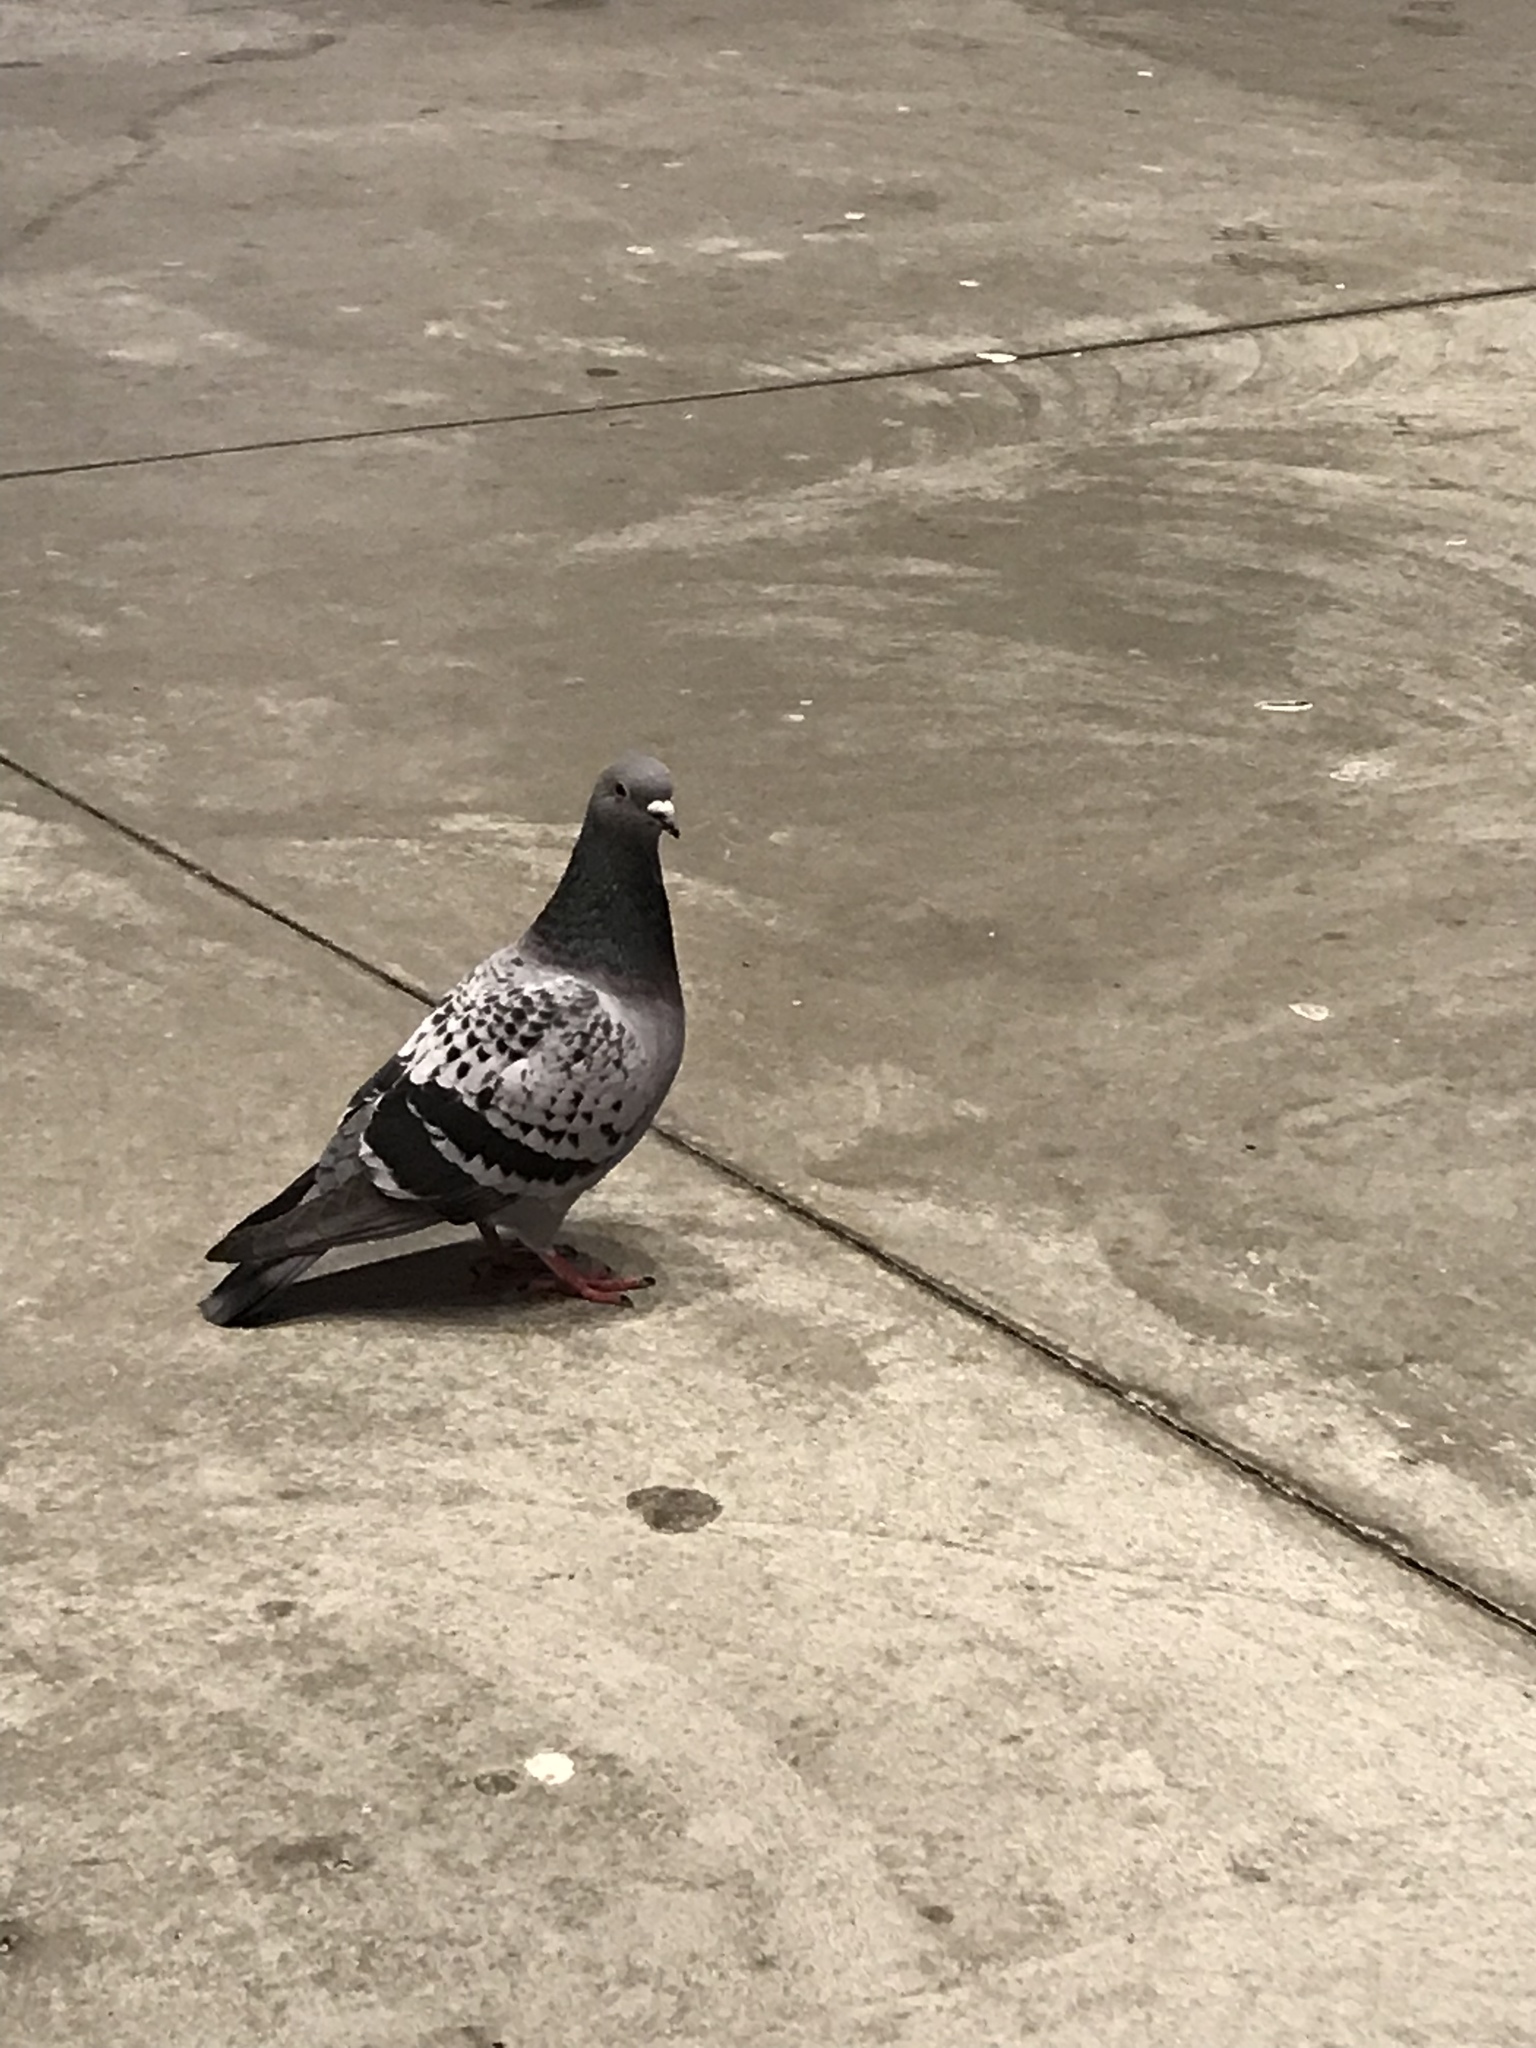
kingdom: Animalia
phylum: Chordata
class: Aves
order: Columbiformes
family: Columbidae
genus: Columba
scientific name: Columba livia
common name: Rock pigeon
